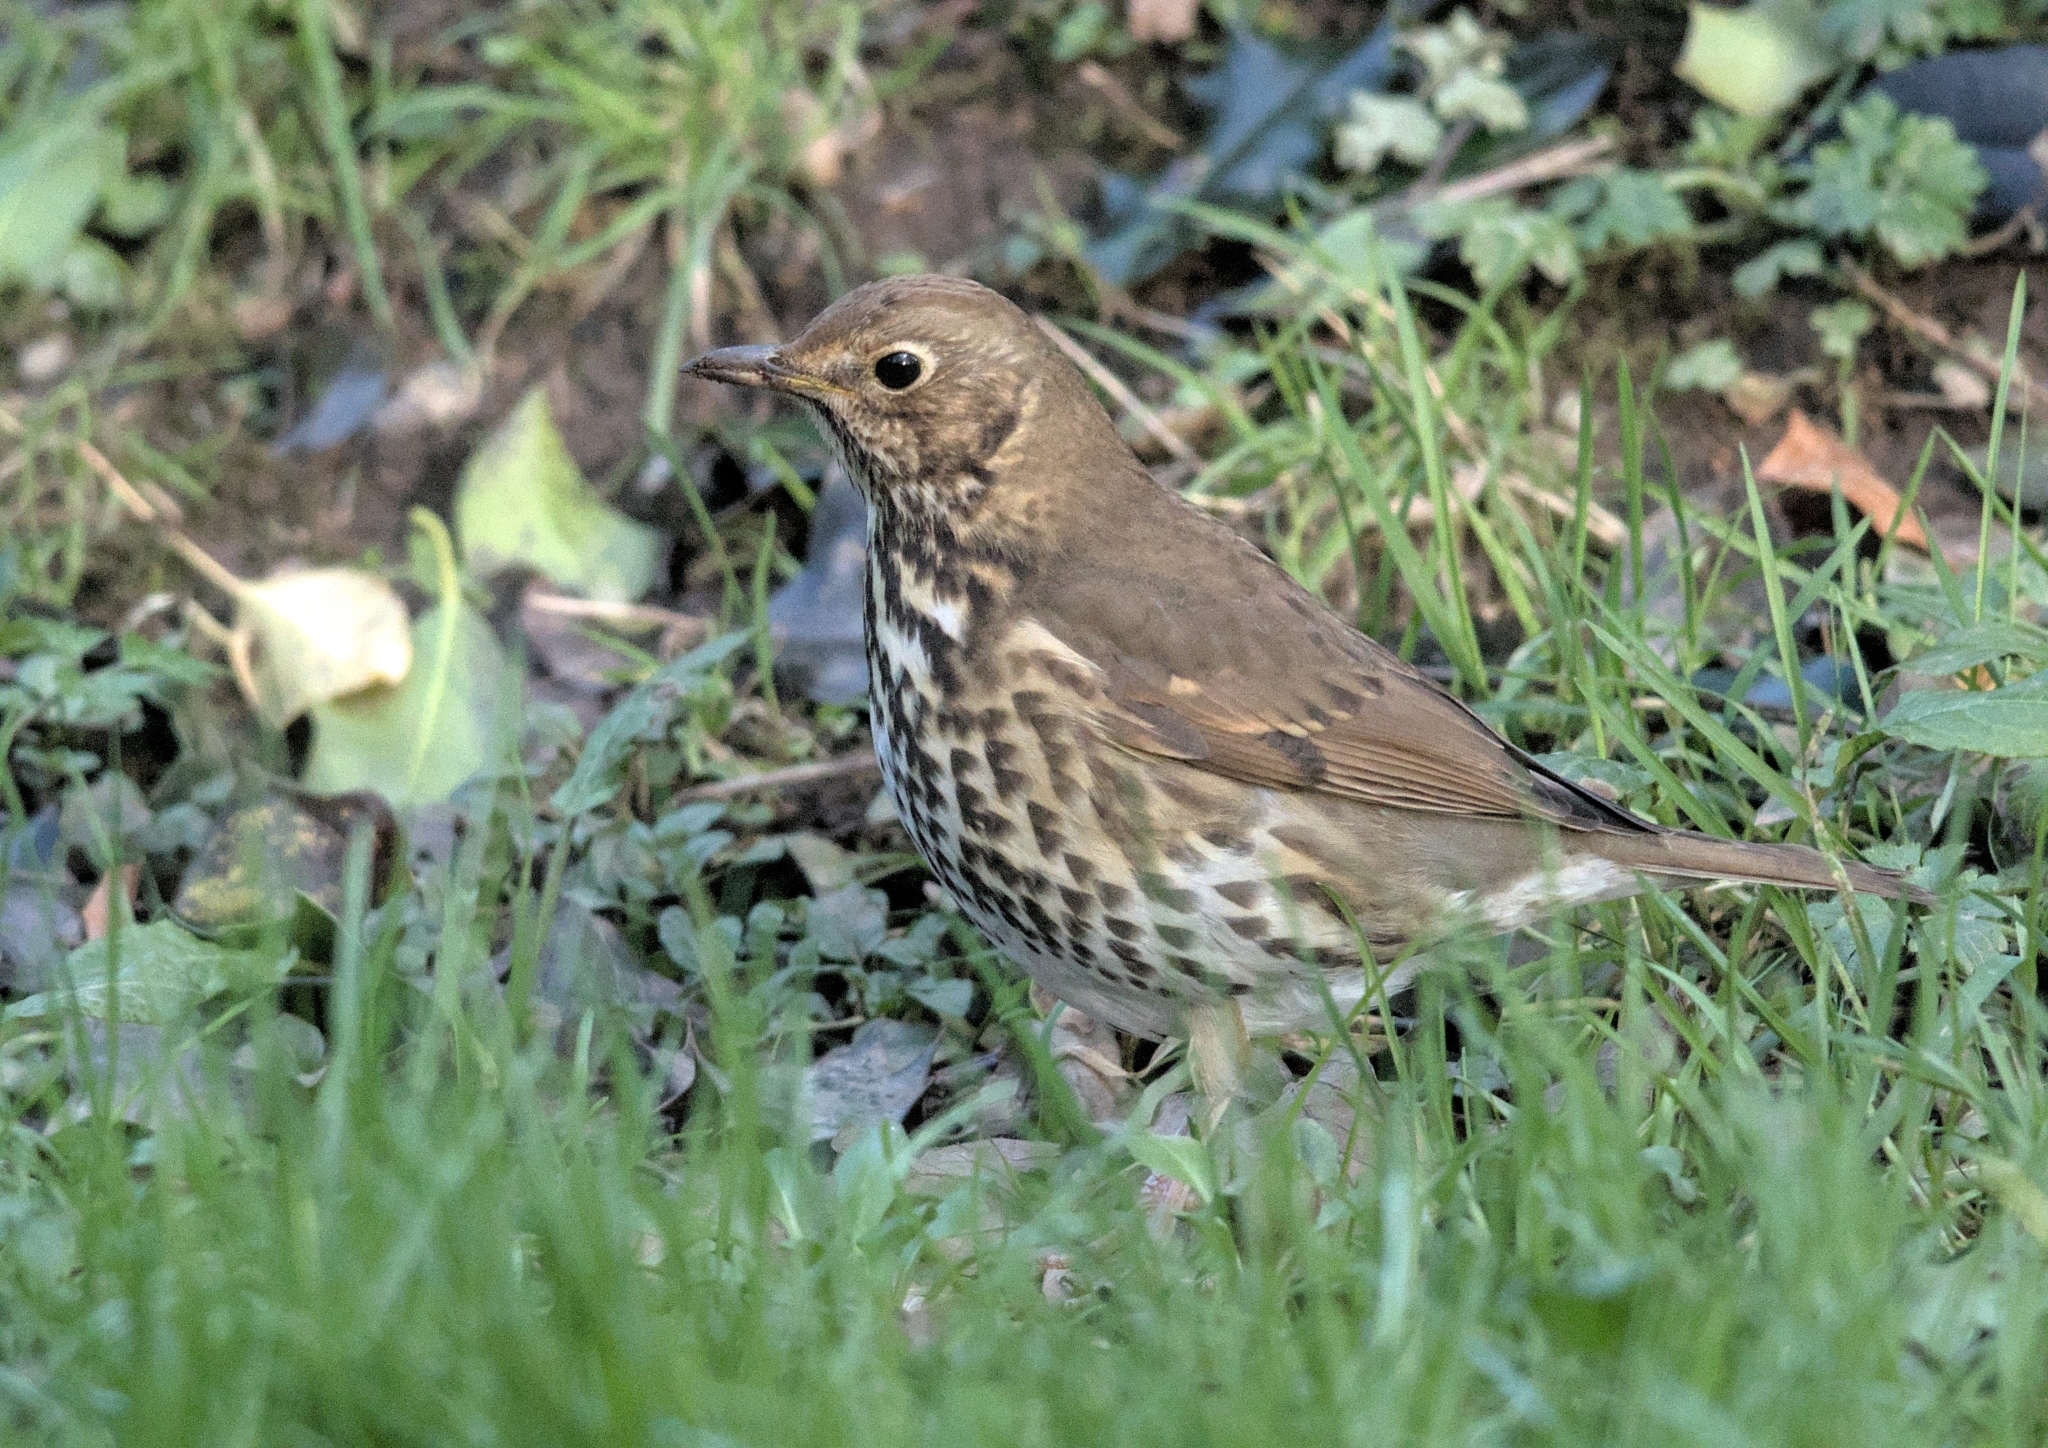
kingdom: Animalia
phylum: Chordata
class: Aves
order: Passeriformes
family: Turdidae
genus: Turdus
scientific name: Turdus philomelos
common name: Song thrush
